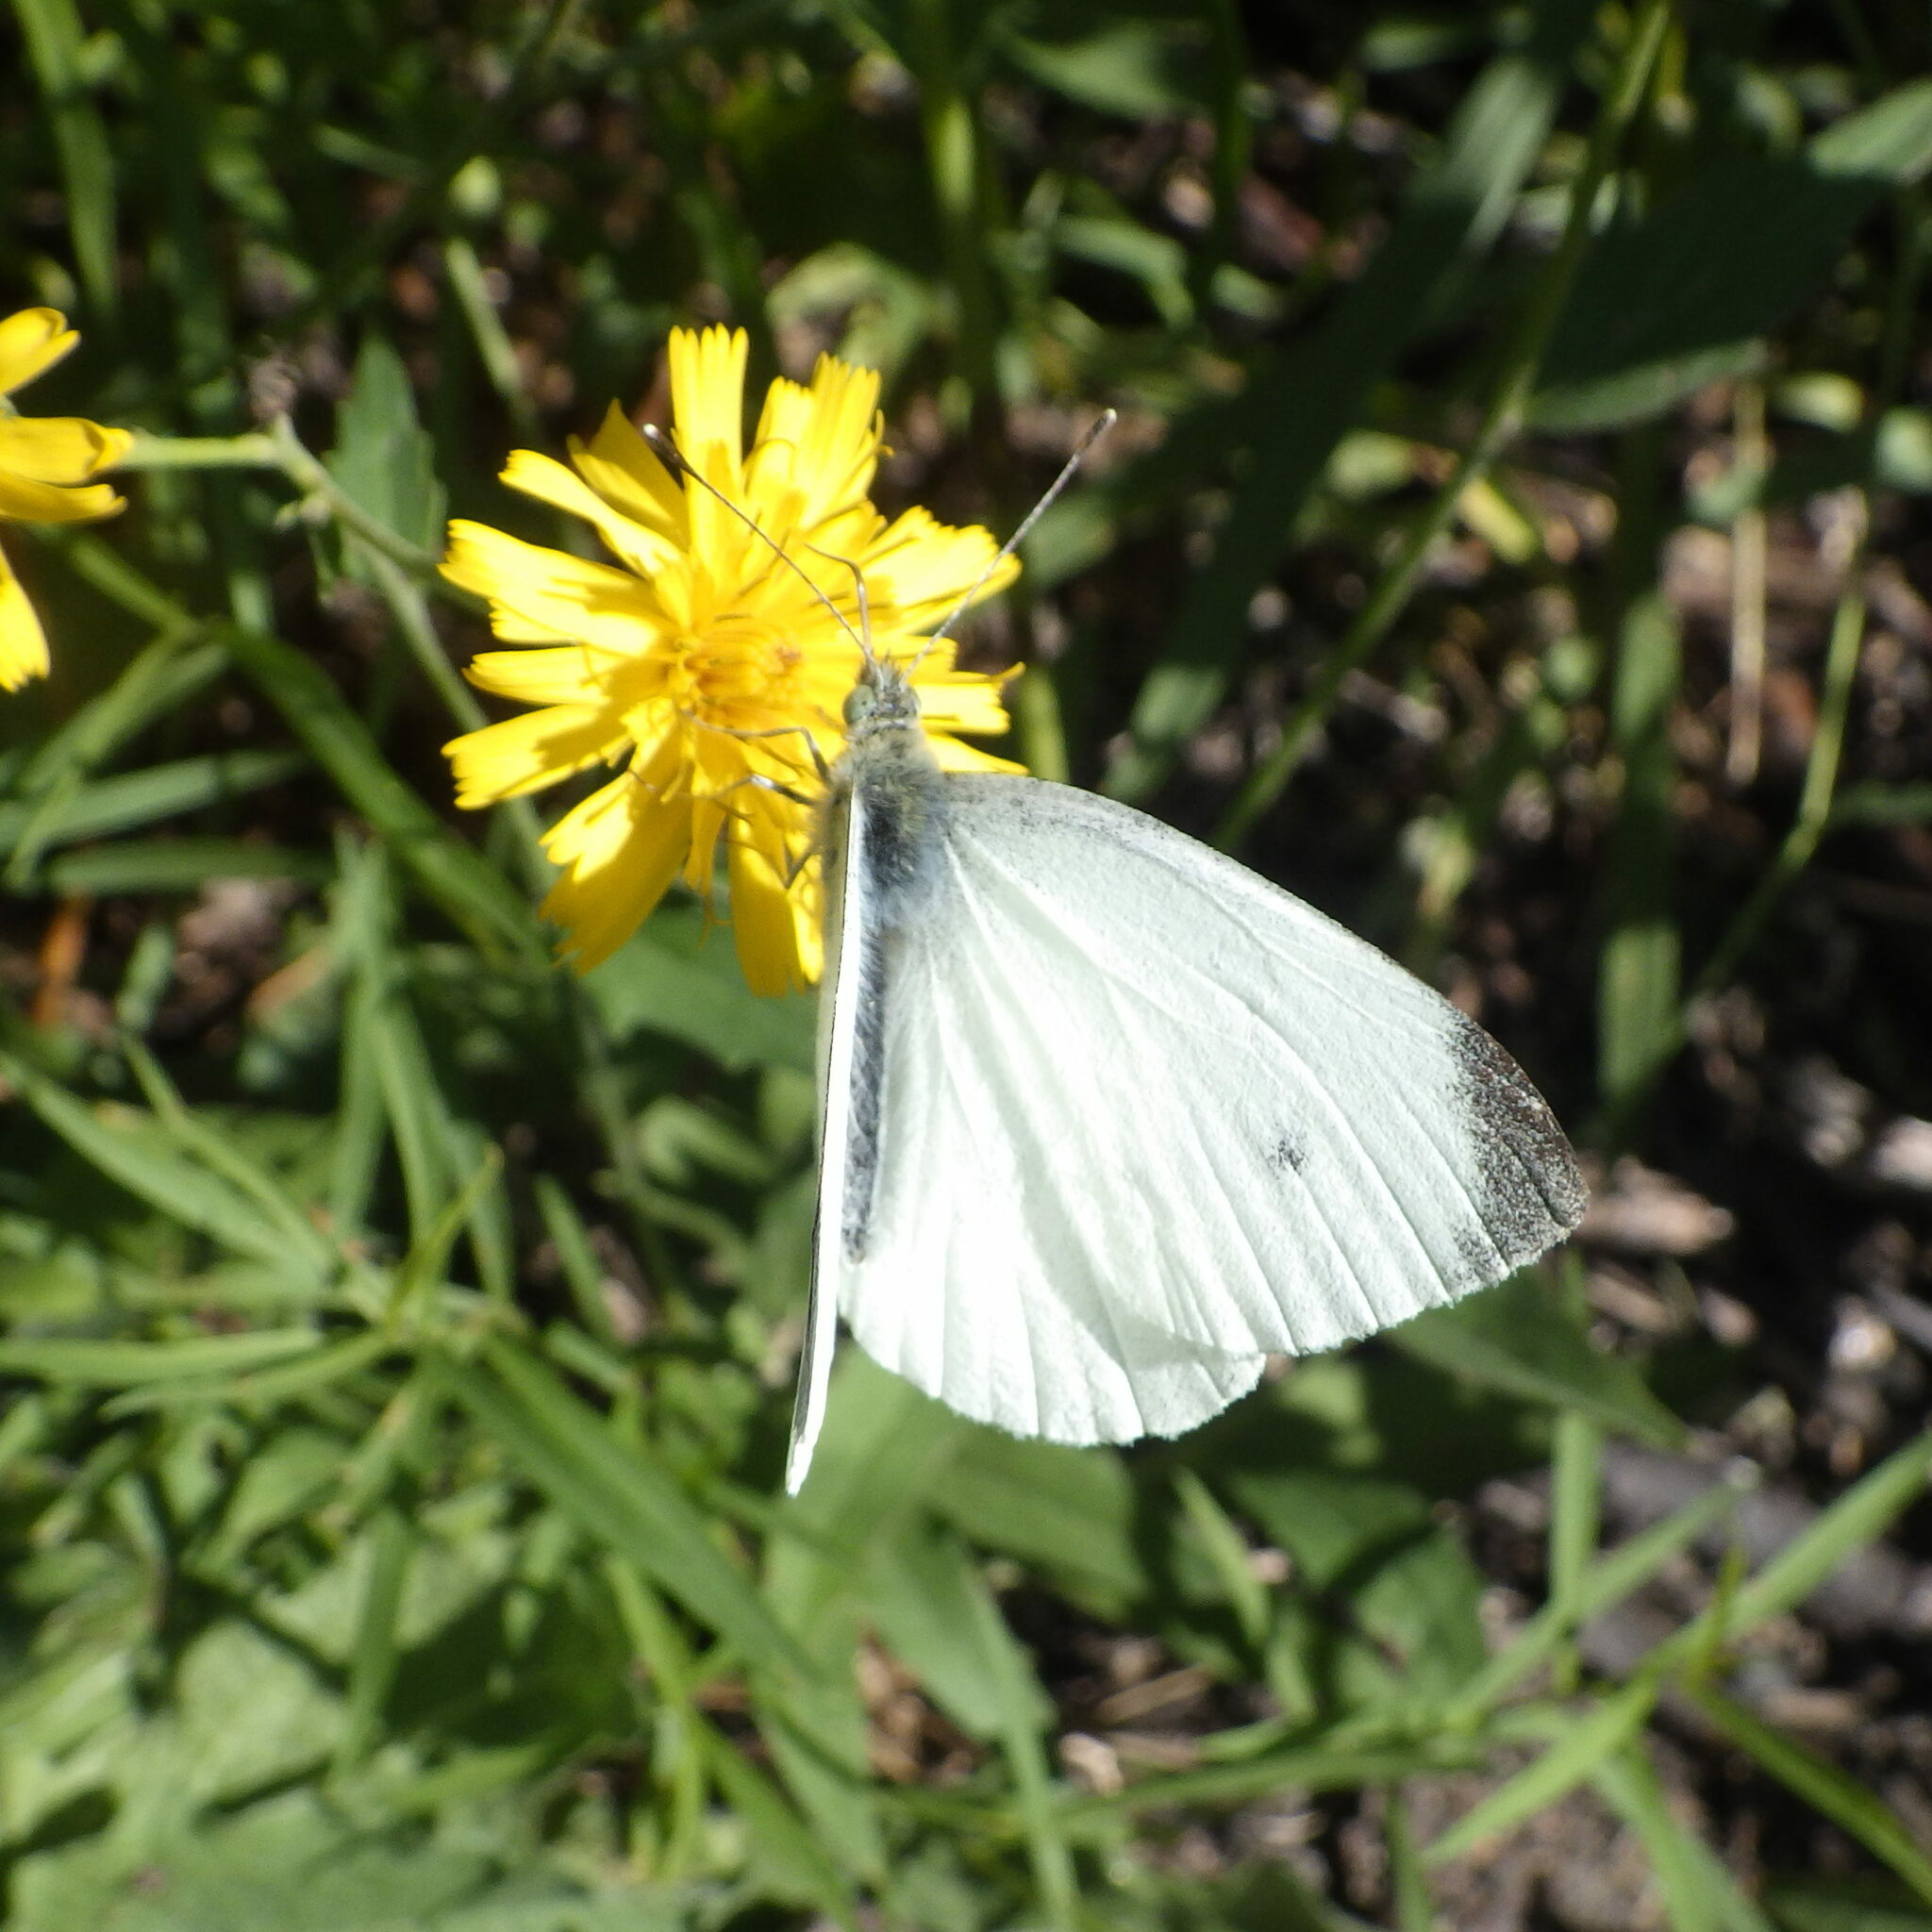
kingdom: Animalia
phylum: Arthropoda
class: Insecta
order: Lepidoptera
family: Pieridae
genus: Pieris
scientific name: Pieris rapae
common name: Small white
